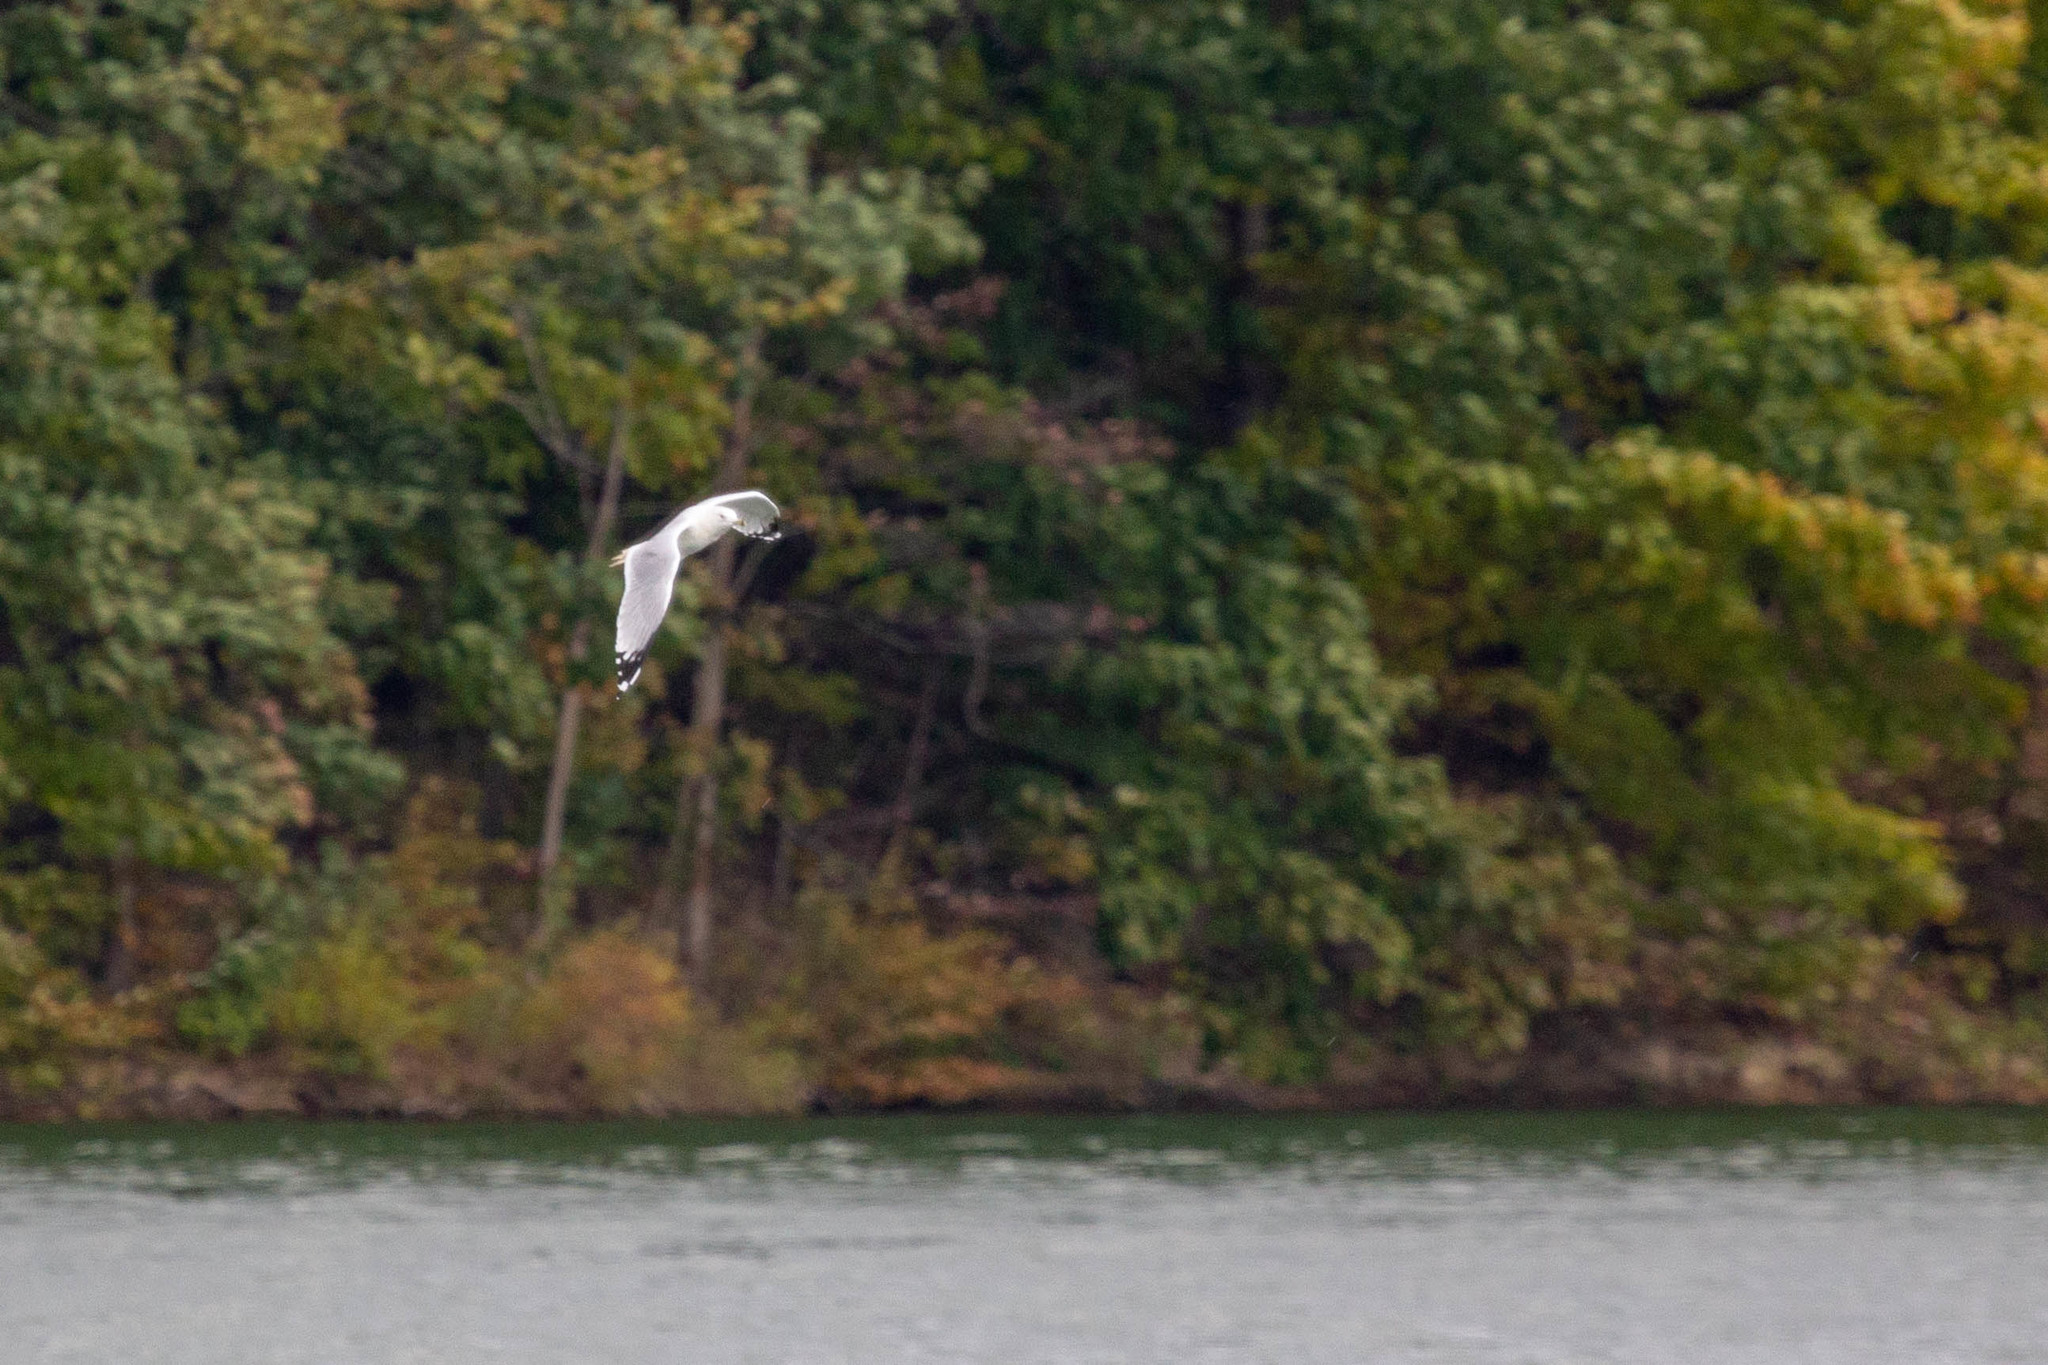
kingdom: Animalia
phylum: Chordata
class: Aves
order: Charadriiformes
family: Laridae
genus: Larus
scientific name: Larus delawarensis
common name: Ring-billed gull
